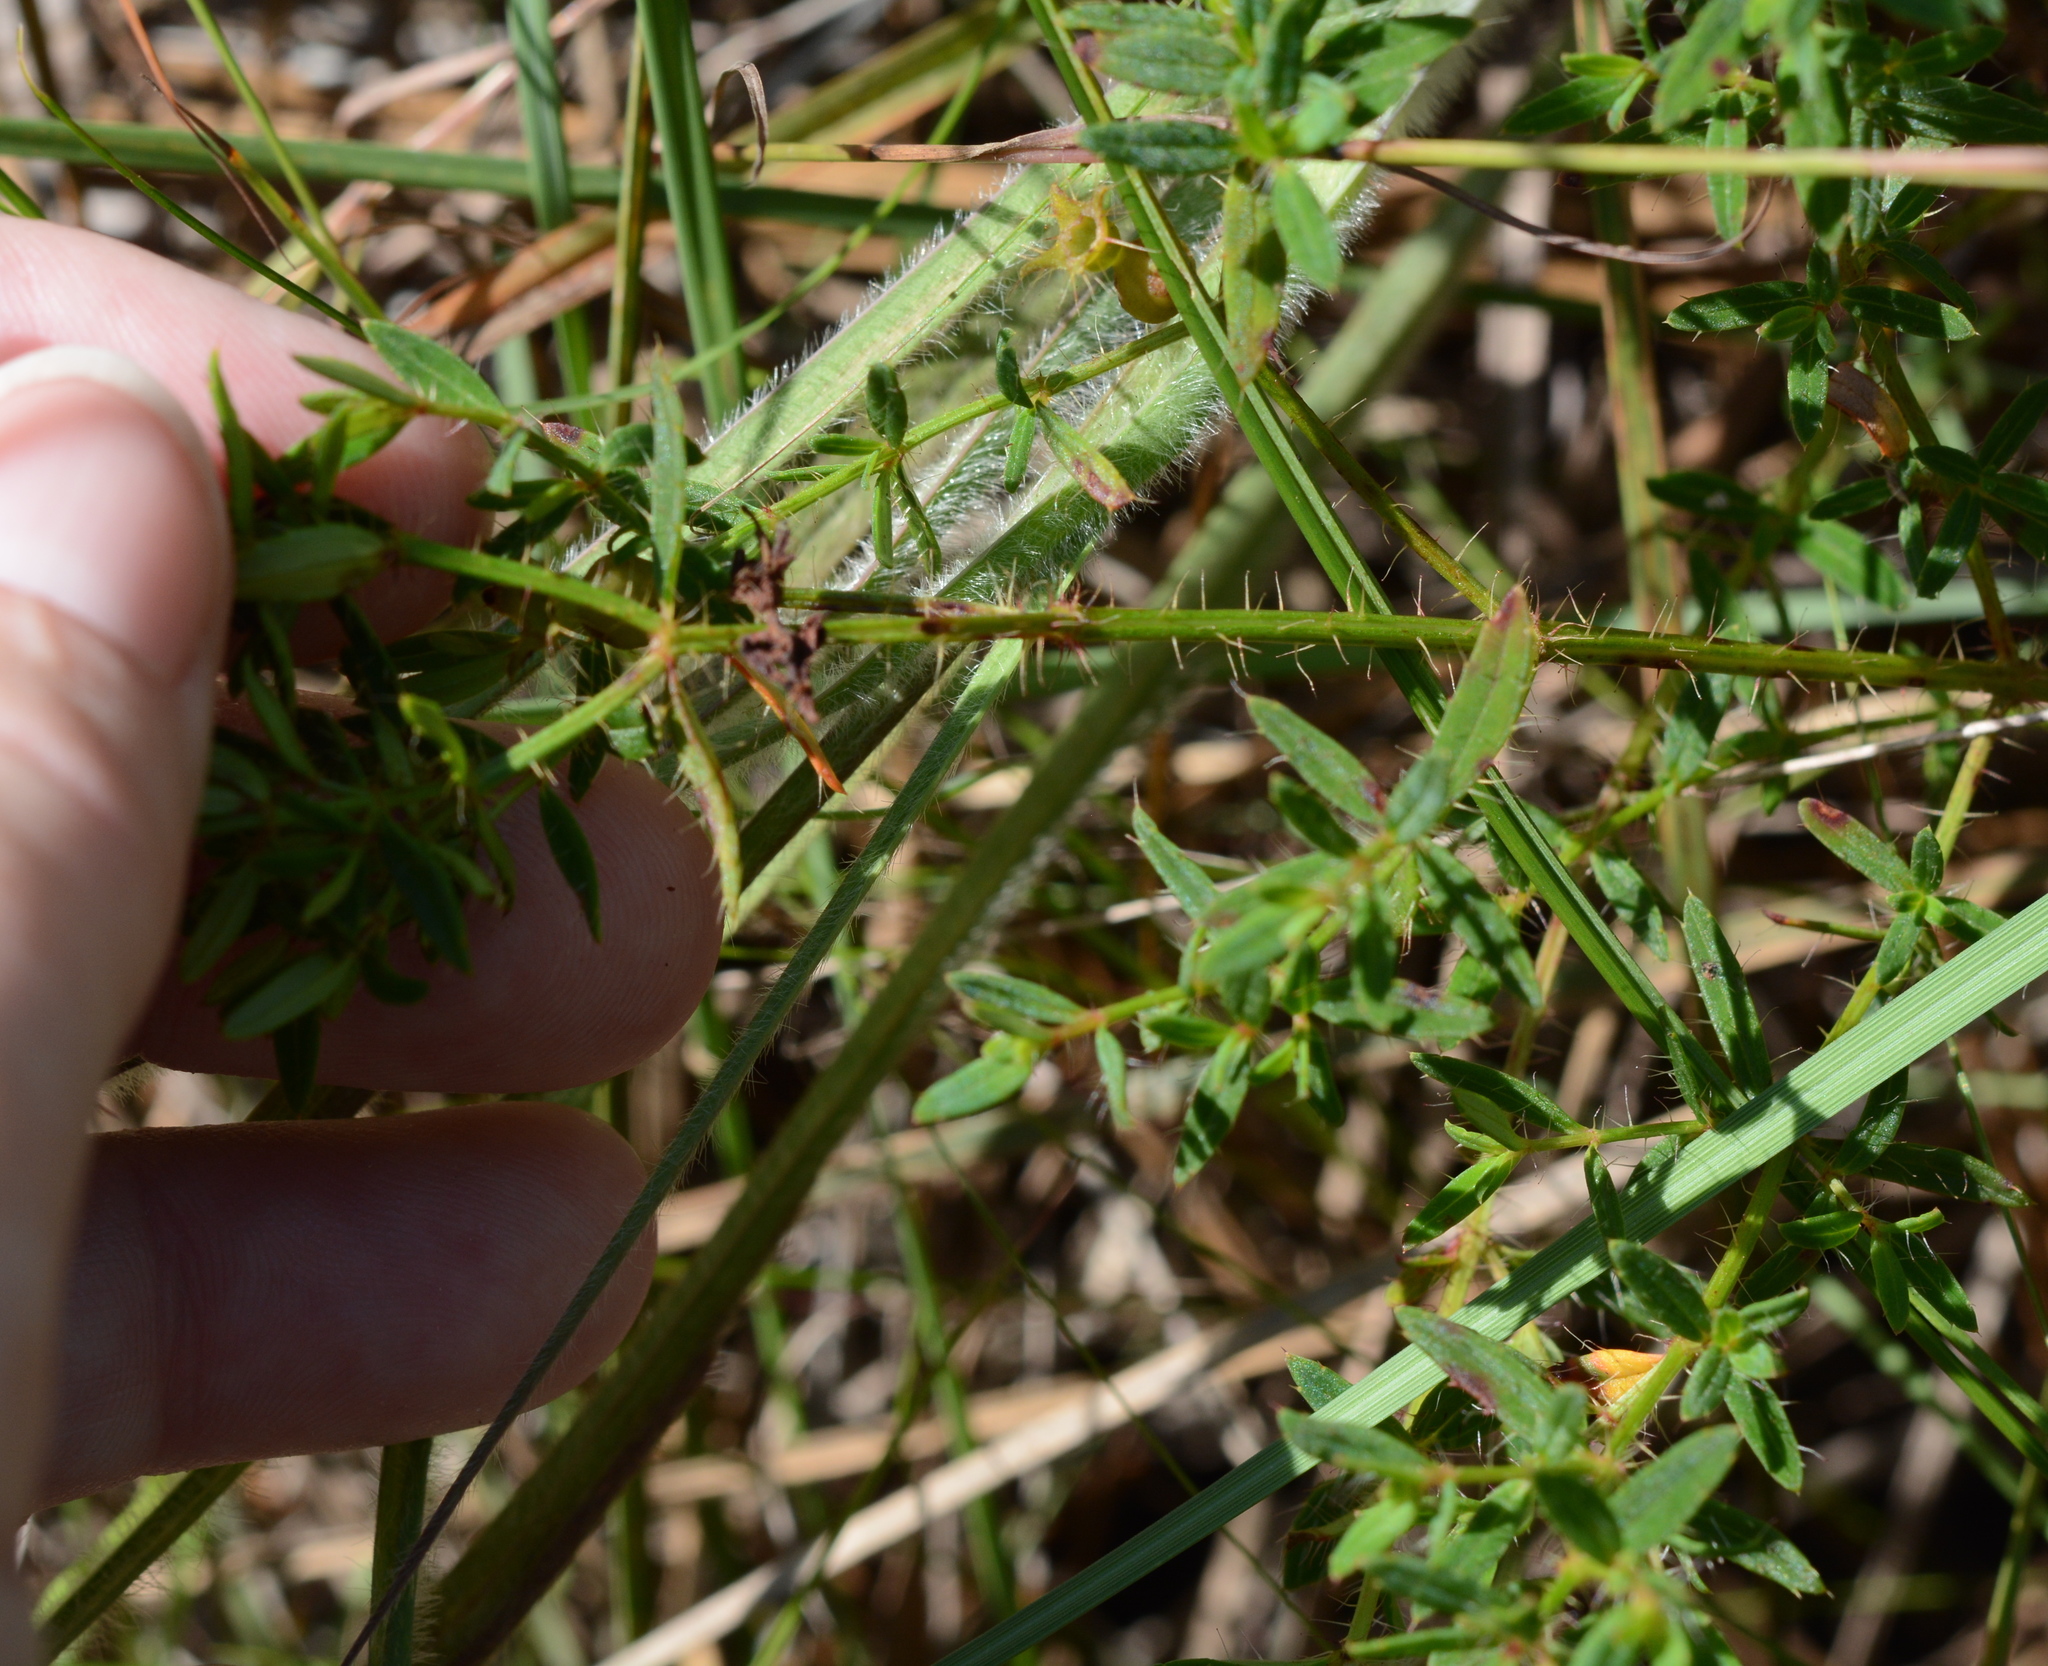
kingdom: Plantae
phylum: Tracheophyta
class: Magnoliopsida
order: Myrtales
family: Melastomataceae
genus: Rhexia
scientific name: Rhexia lutea
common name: Golden meadow-beauty
